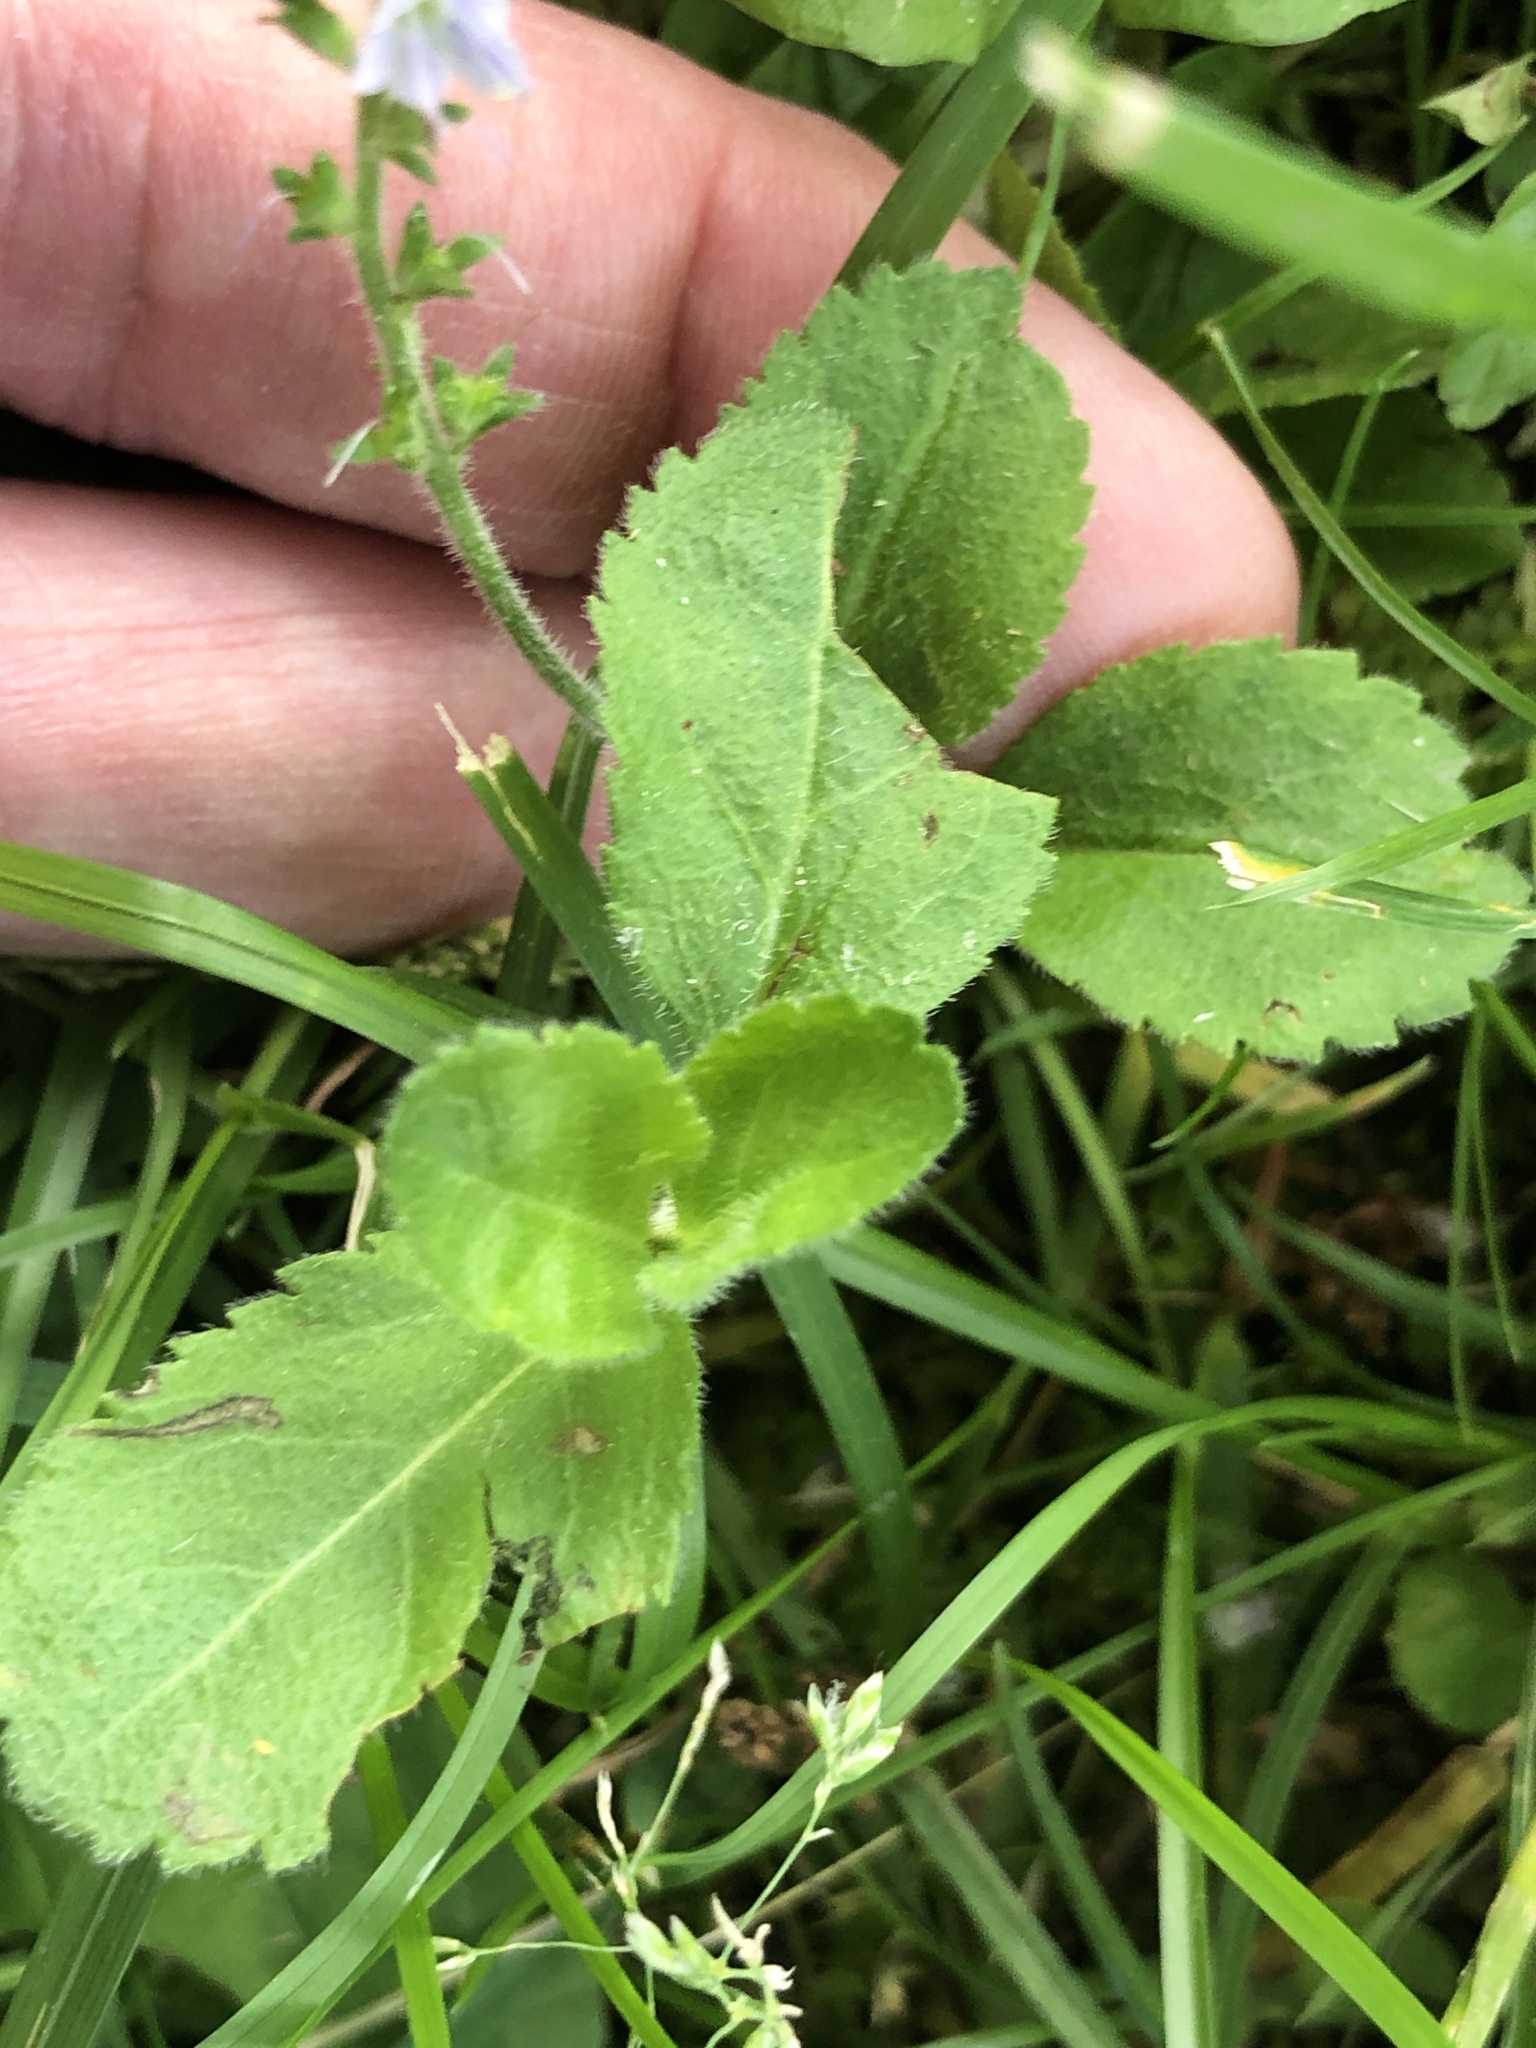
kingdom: Plantae
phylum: Tracheophyta
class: Magnoliopsida
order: Lamiales
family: Plantaginaceae
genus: Veronica
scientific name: Veronica officinalis
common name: Common speedwell
